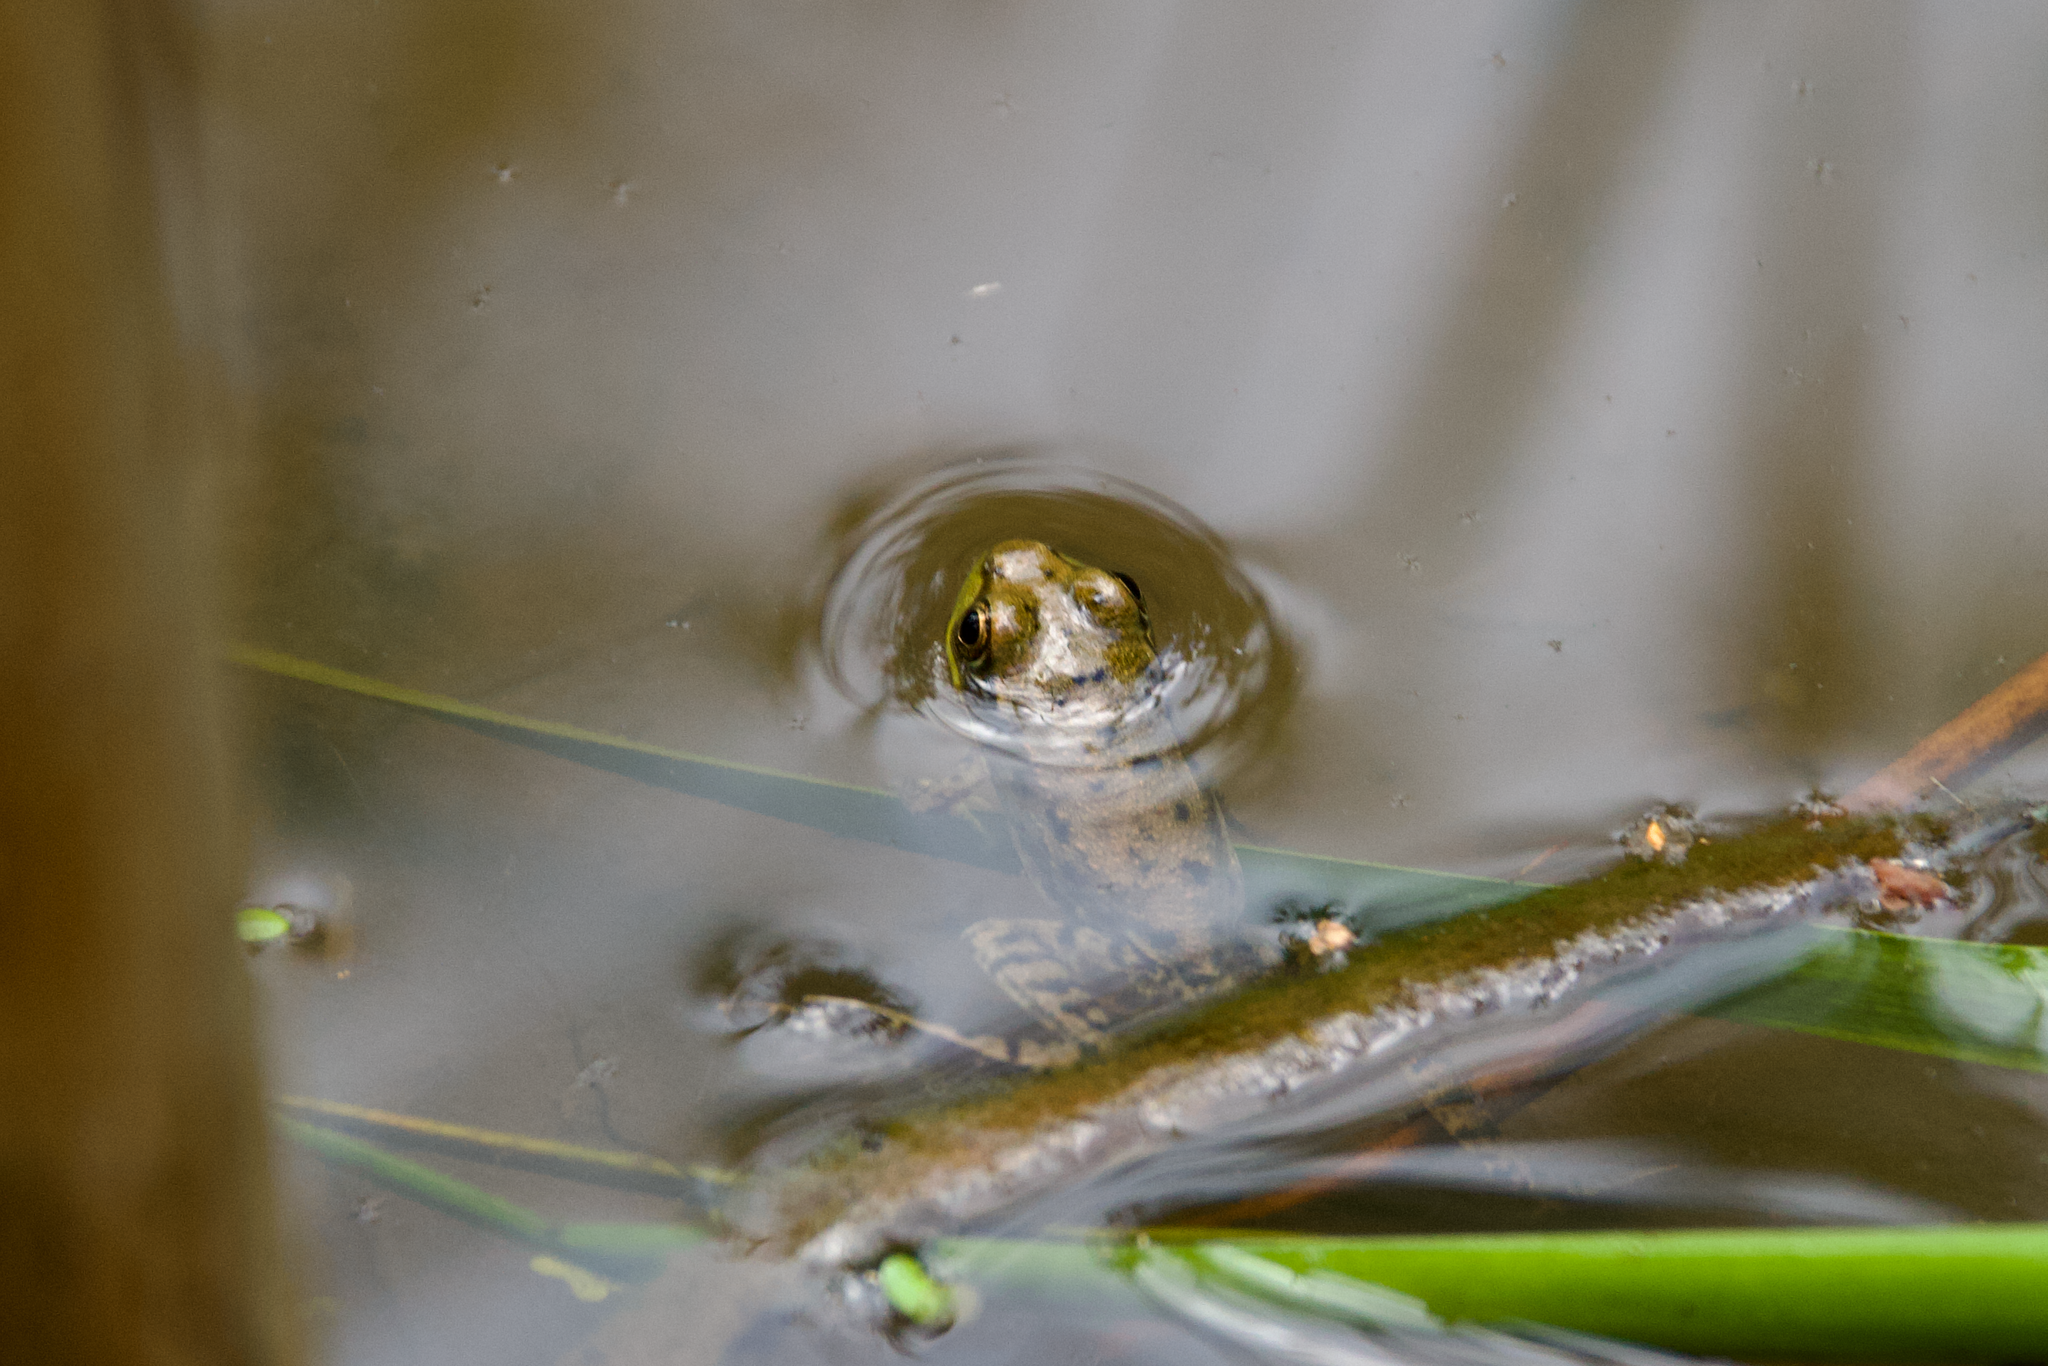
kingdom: Animalia
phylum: Chordata
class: Amphibia
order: Anura
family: Ranidae
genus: Lithobates
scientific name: Lithobates clamitans
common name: Green frog
